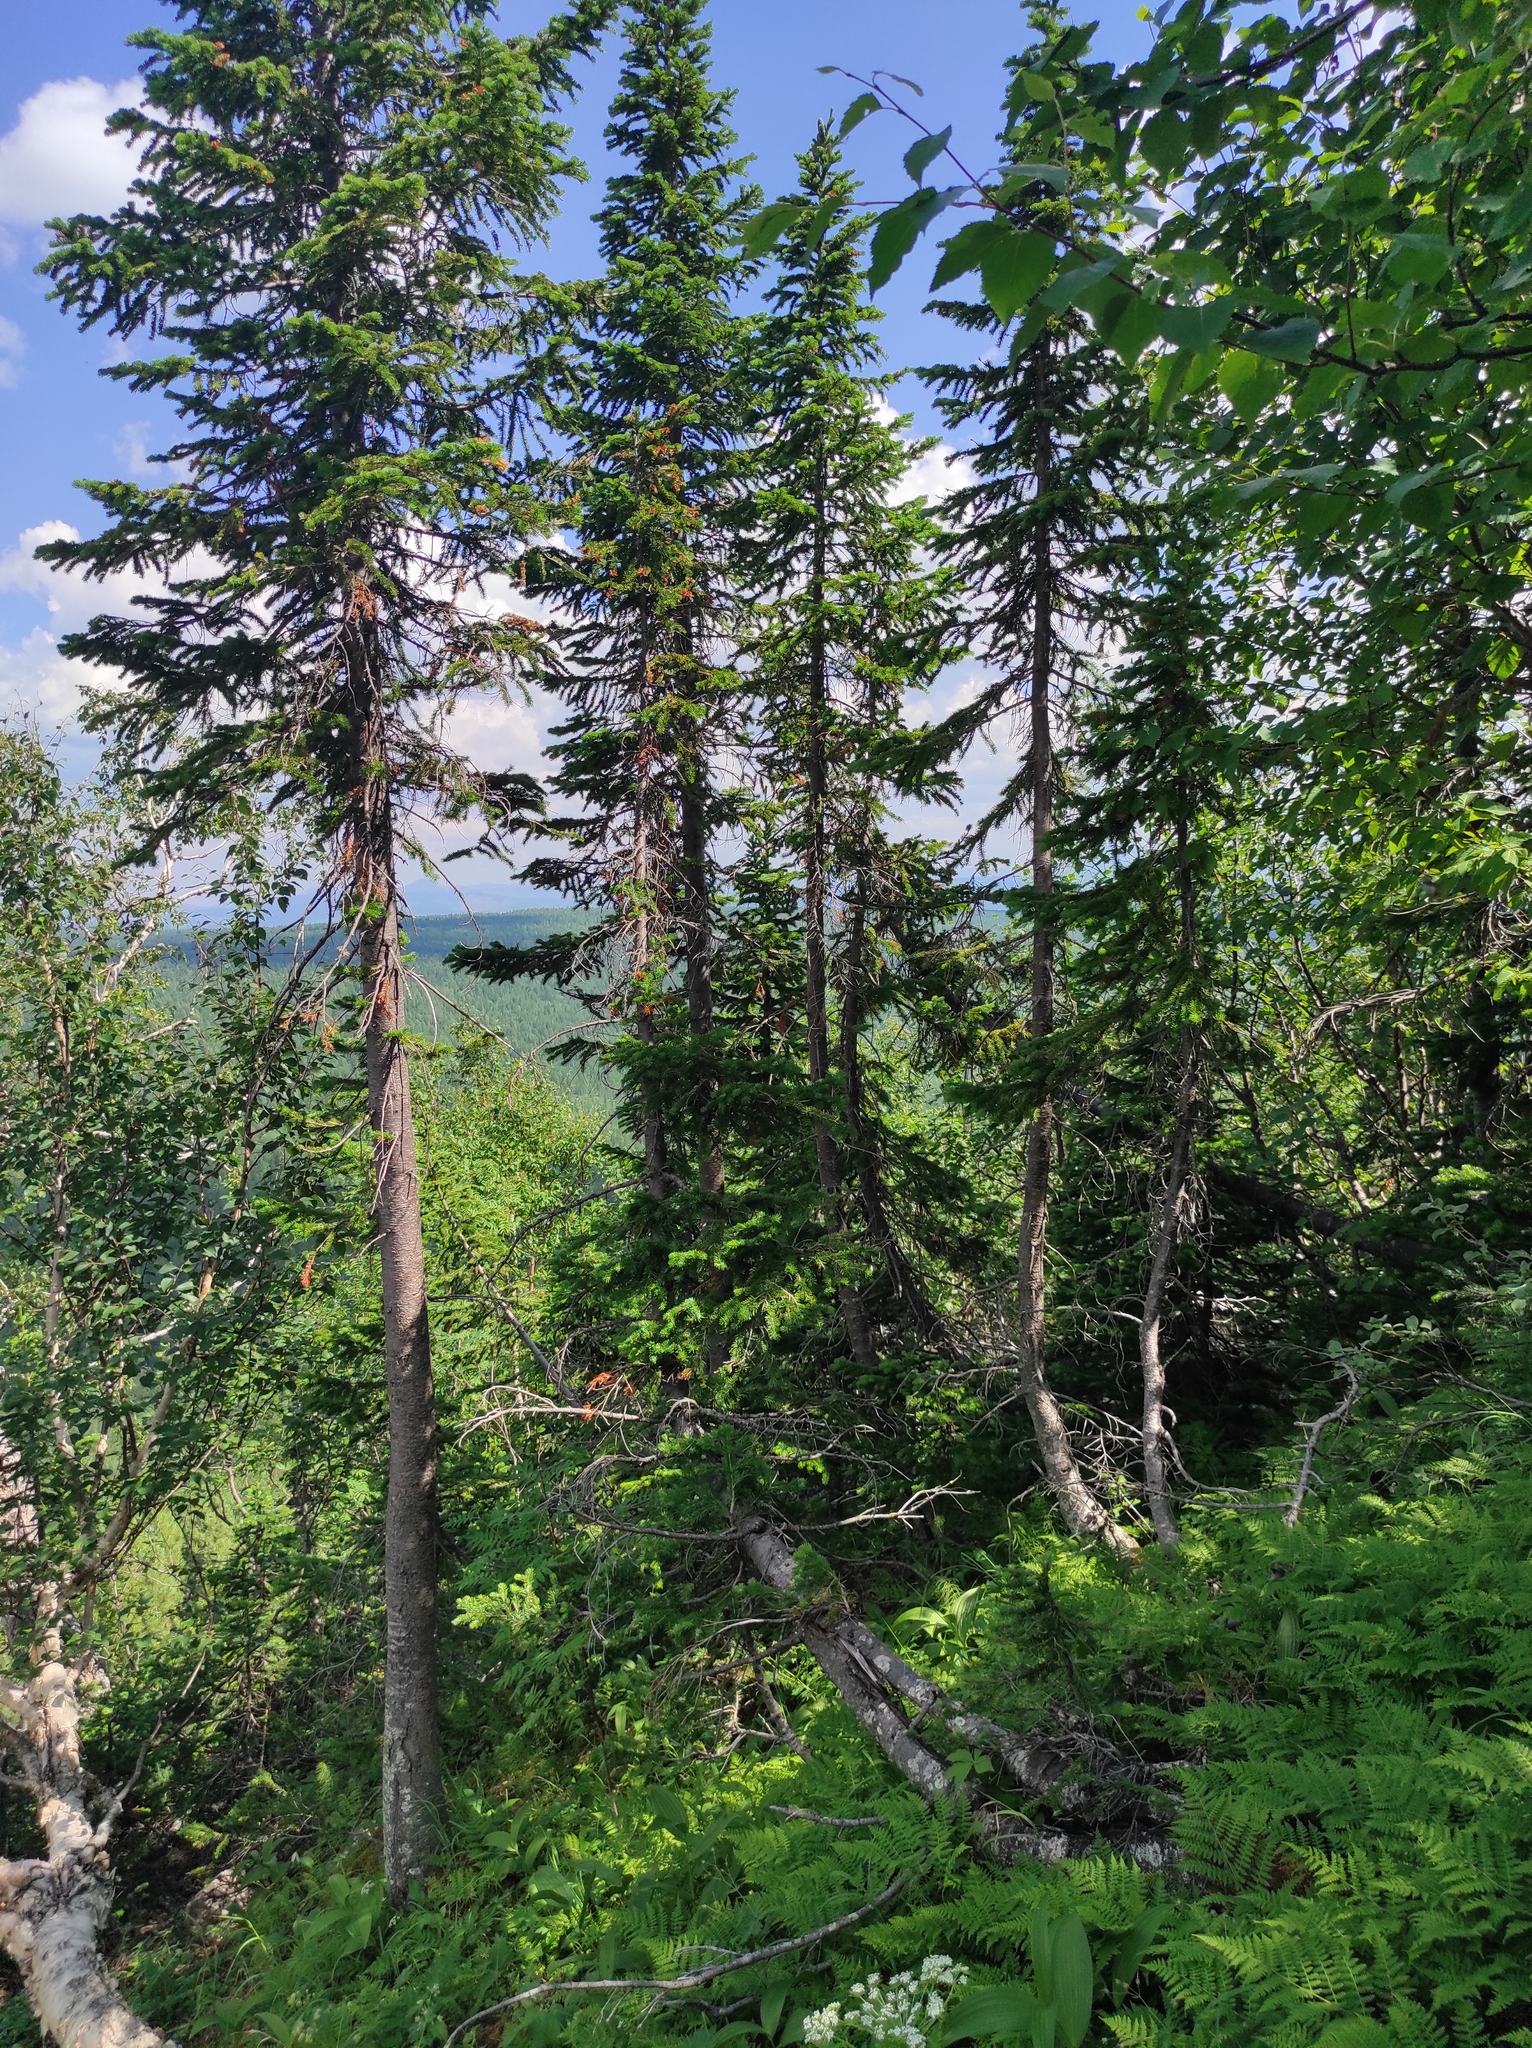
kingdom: Plantae
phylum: Tracheophyta
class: Polypodiopsida
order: Polypodiales
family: Athyriaceae
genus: Diplazium
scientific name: Diplazium sibiricum
